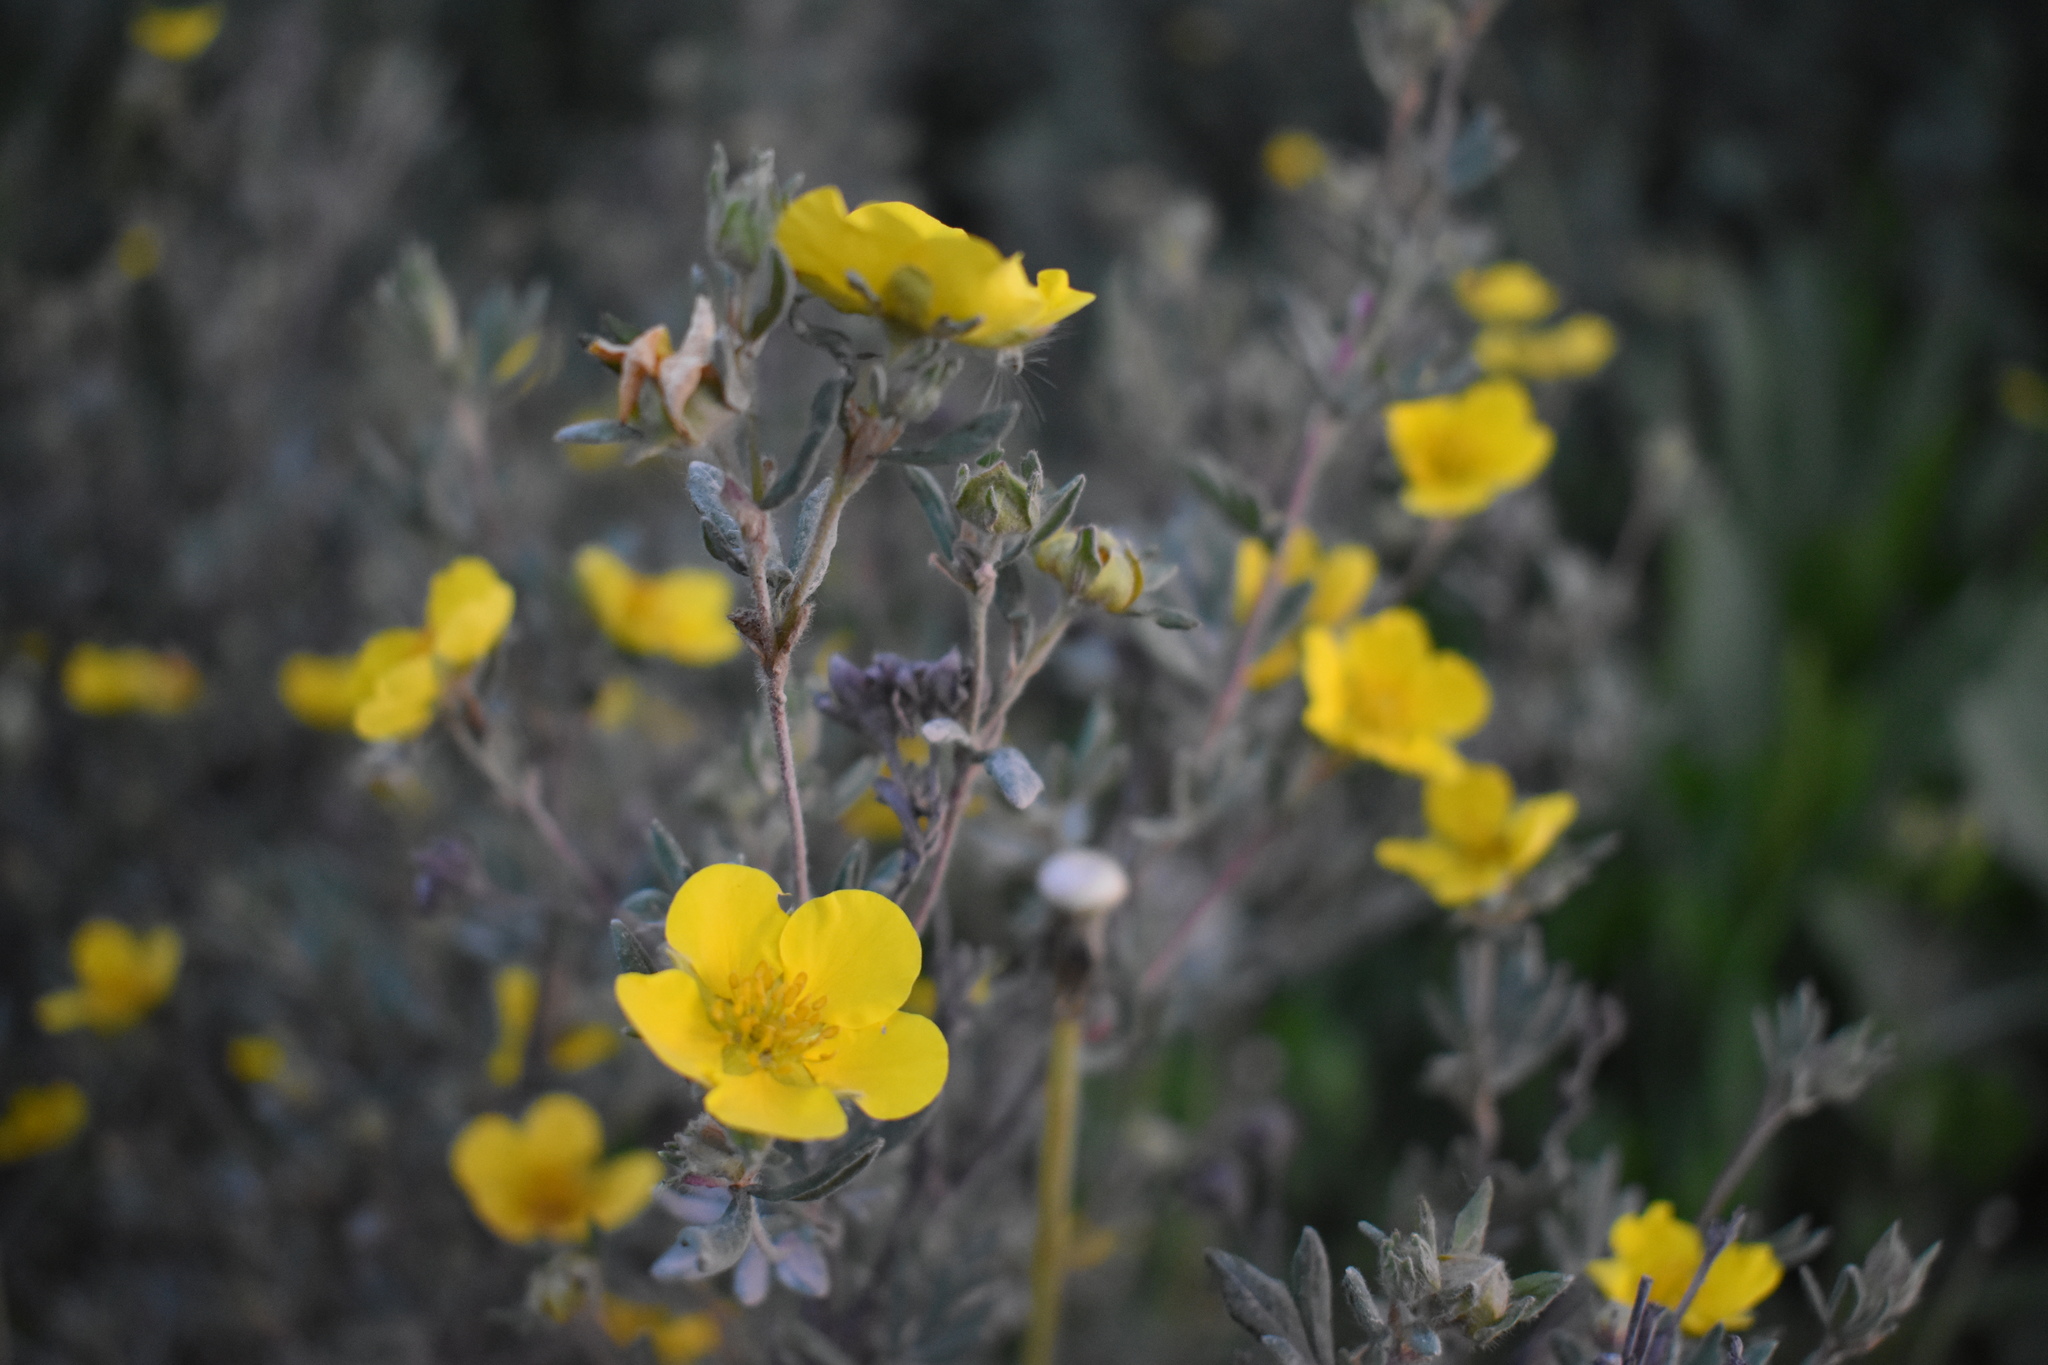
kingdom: Plantae
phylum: Tracheophyta
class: Magnoliopsida
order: Rosales
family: Rosaceae
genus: Dasiphora
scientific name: Dasiphora fruticosa
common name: Shrubby cinquefoil
